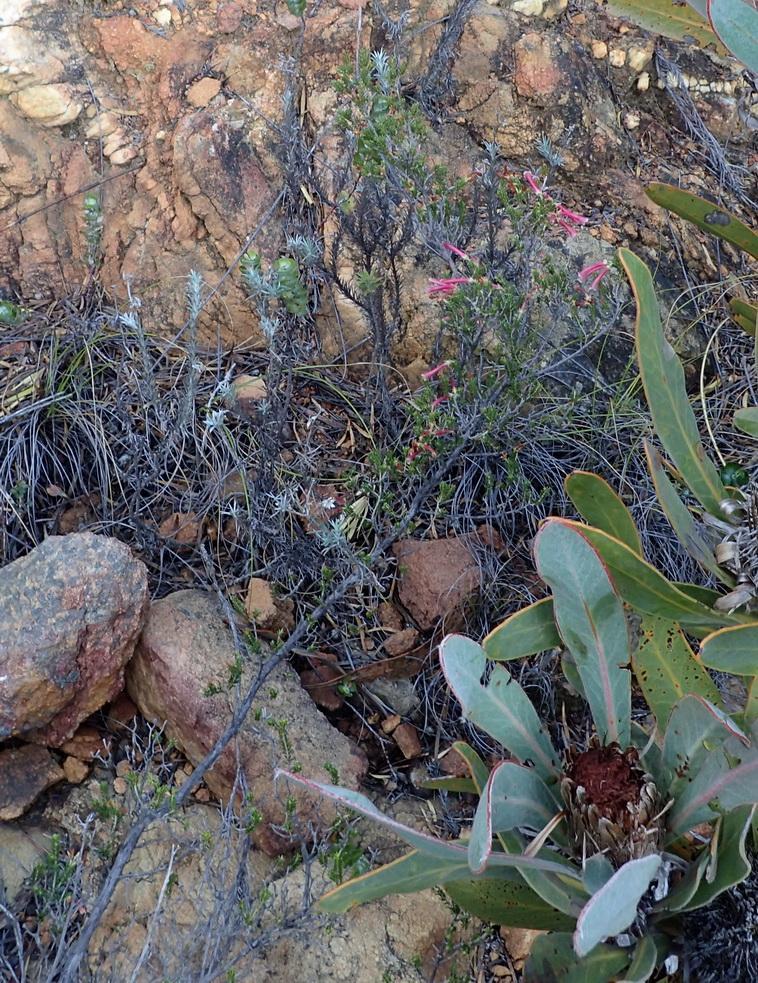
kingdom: Plantae
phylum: Tracheophyta
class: Magnoliopsida
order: Ericales
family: Ericaceae
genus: Erica
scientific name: Erica discolor
